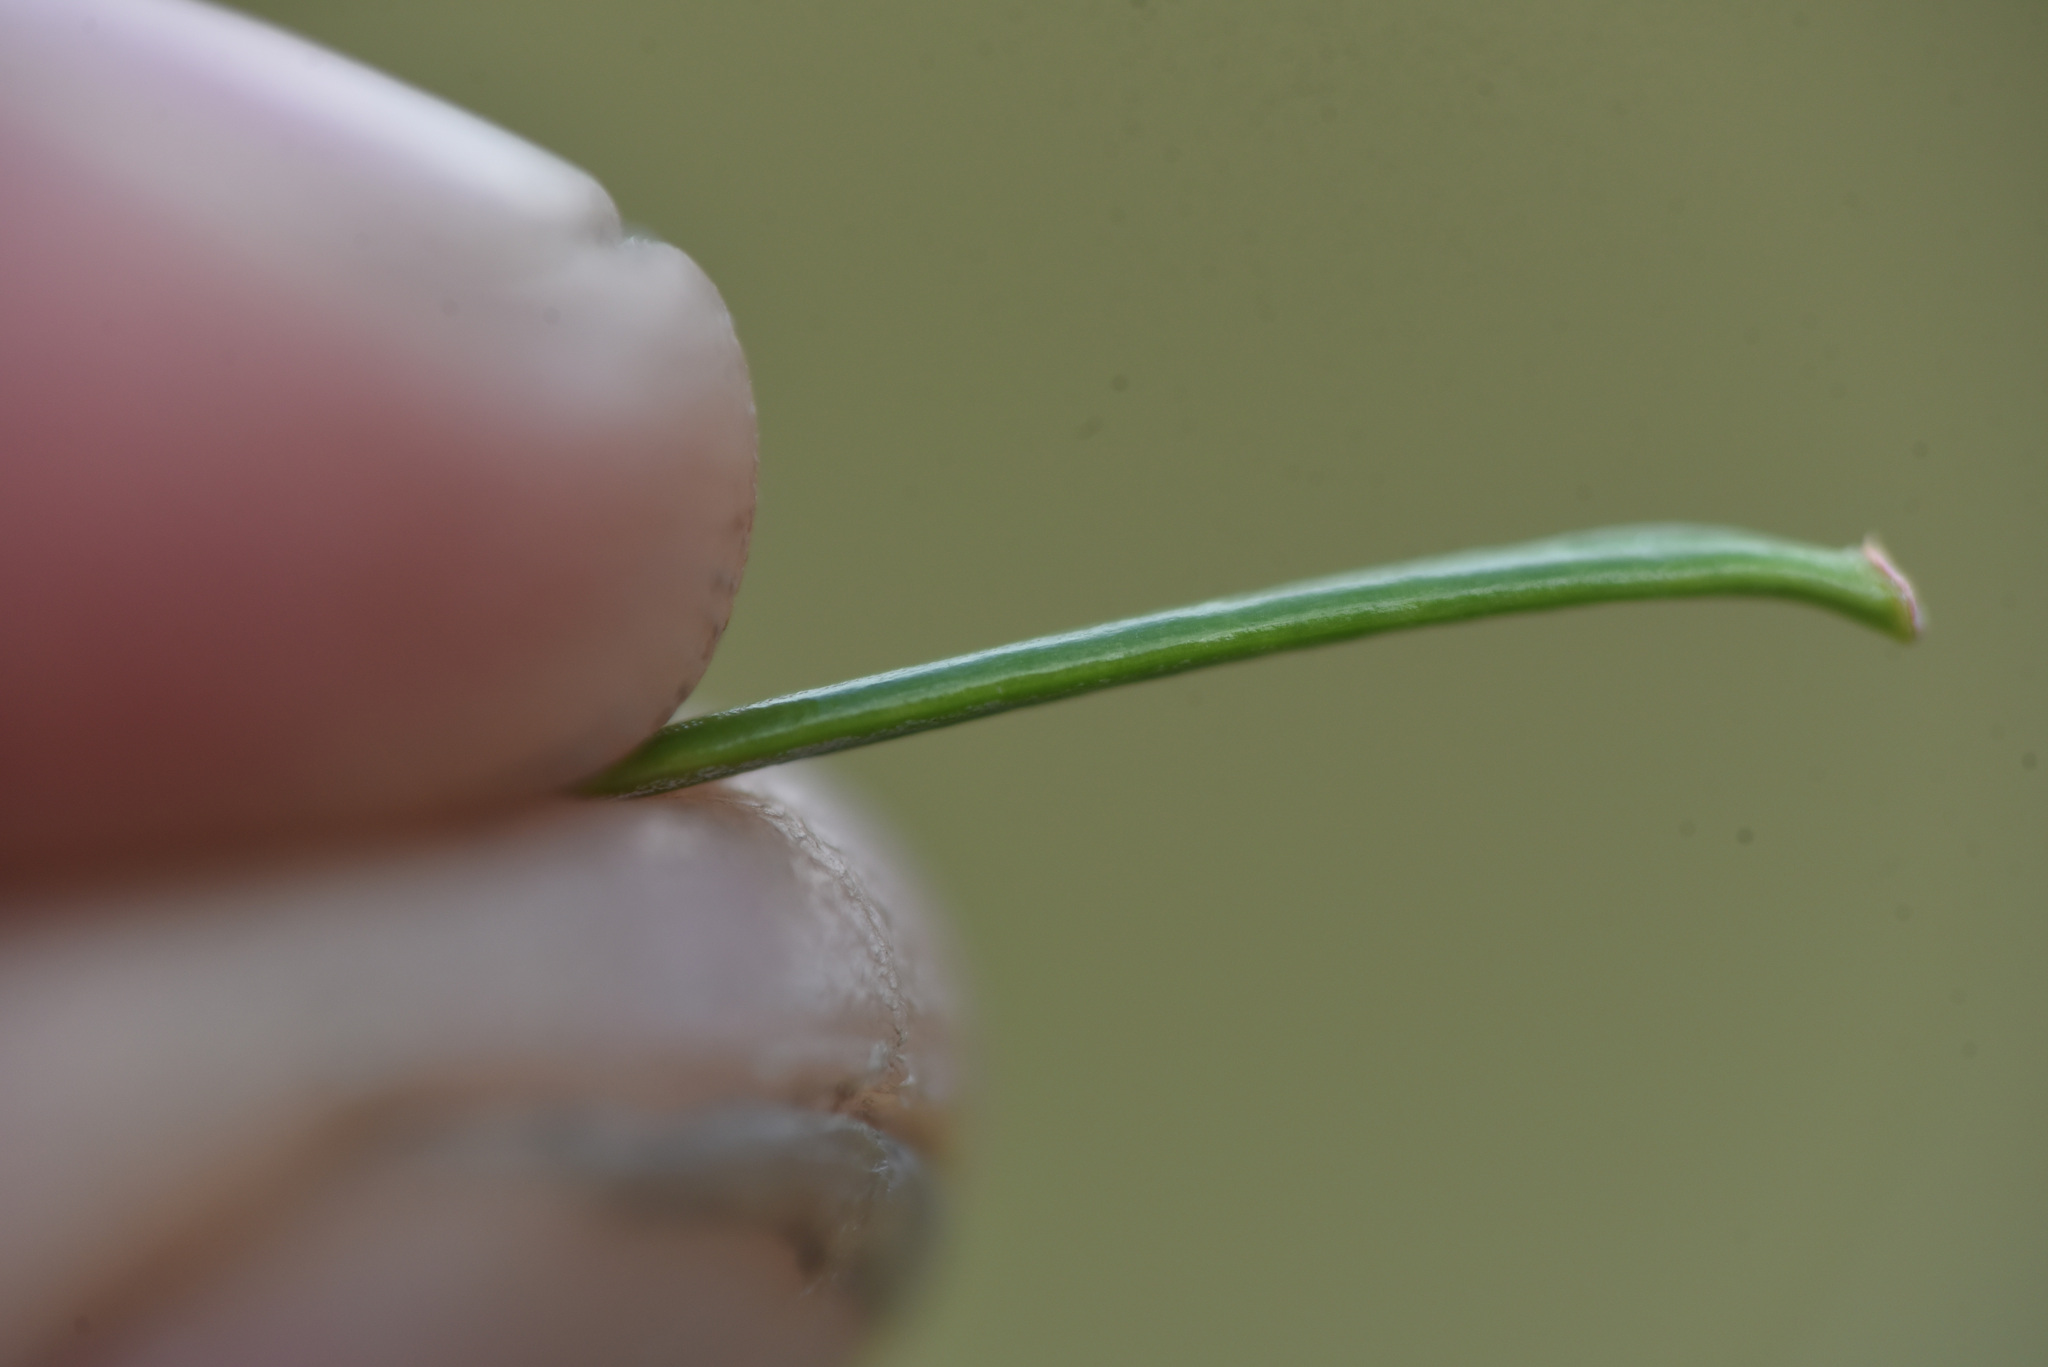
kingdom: Plantae
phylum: Tracheophyta
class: Pinopsida
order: Pinales
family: Pinaceae
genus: Abies
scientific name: Abies lasiocarpa
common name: Subalpine fir
